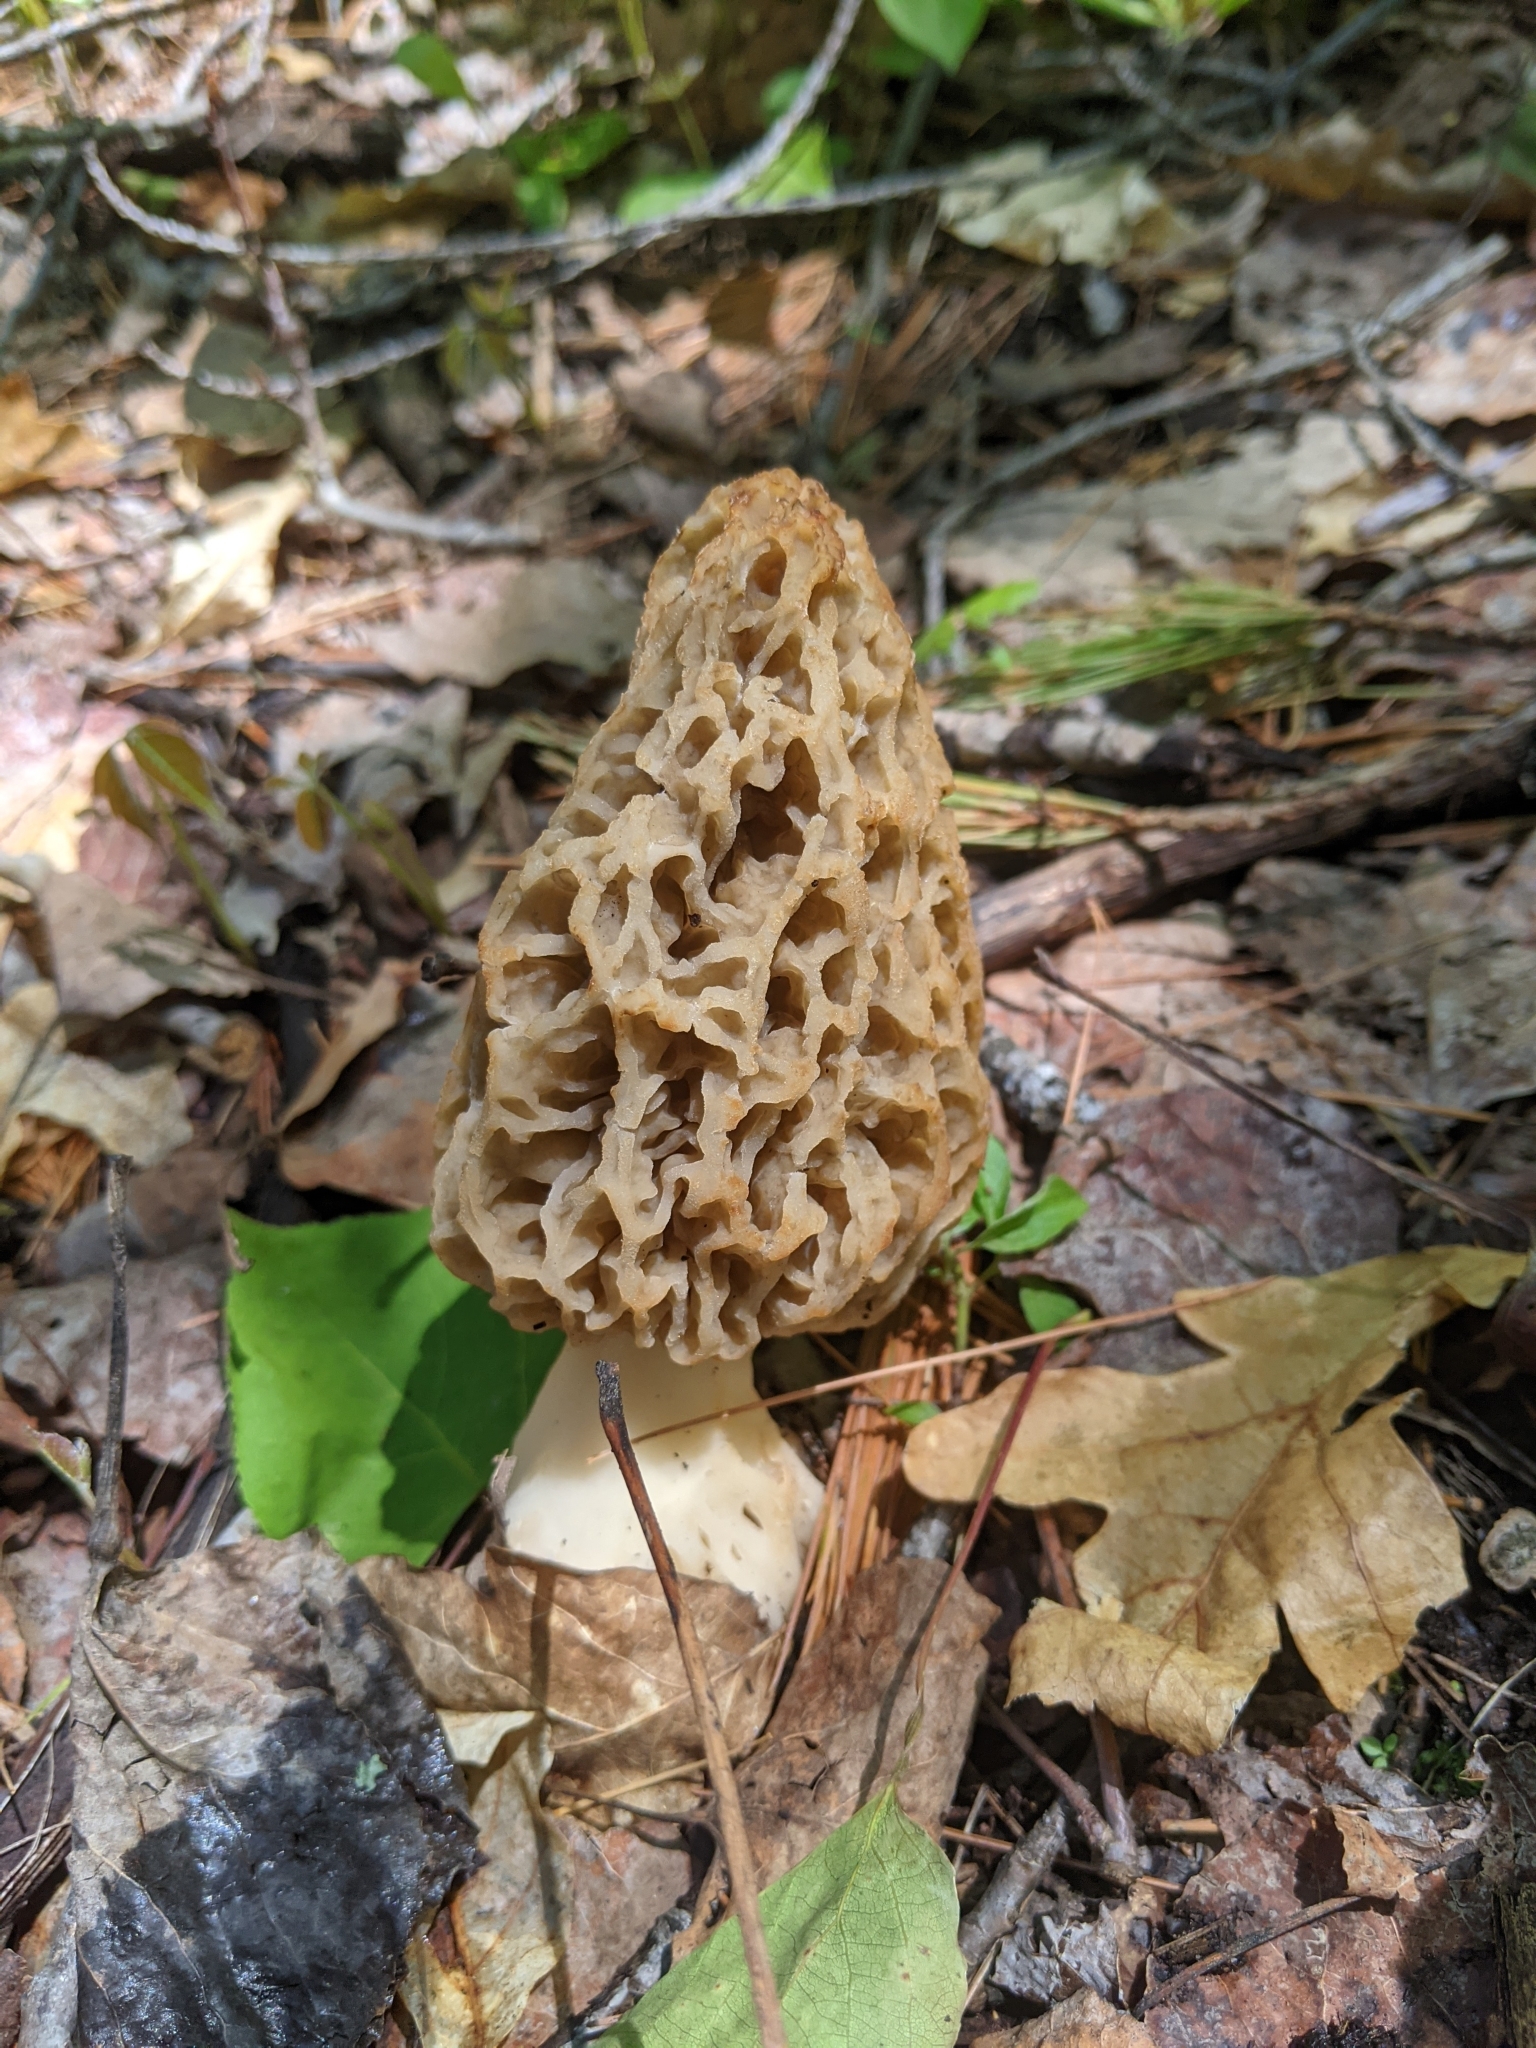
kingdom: Fungi
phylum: Ascomycota
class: Pezizomycetes
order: Pezizales
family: Morchellaceae
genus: Morchella
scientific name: Morchella americana
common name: White morel
